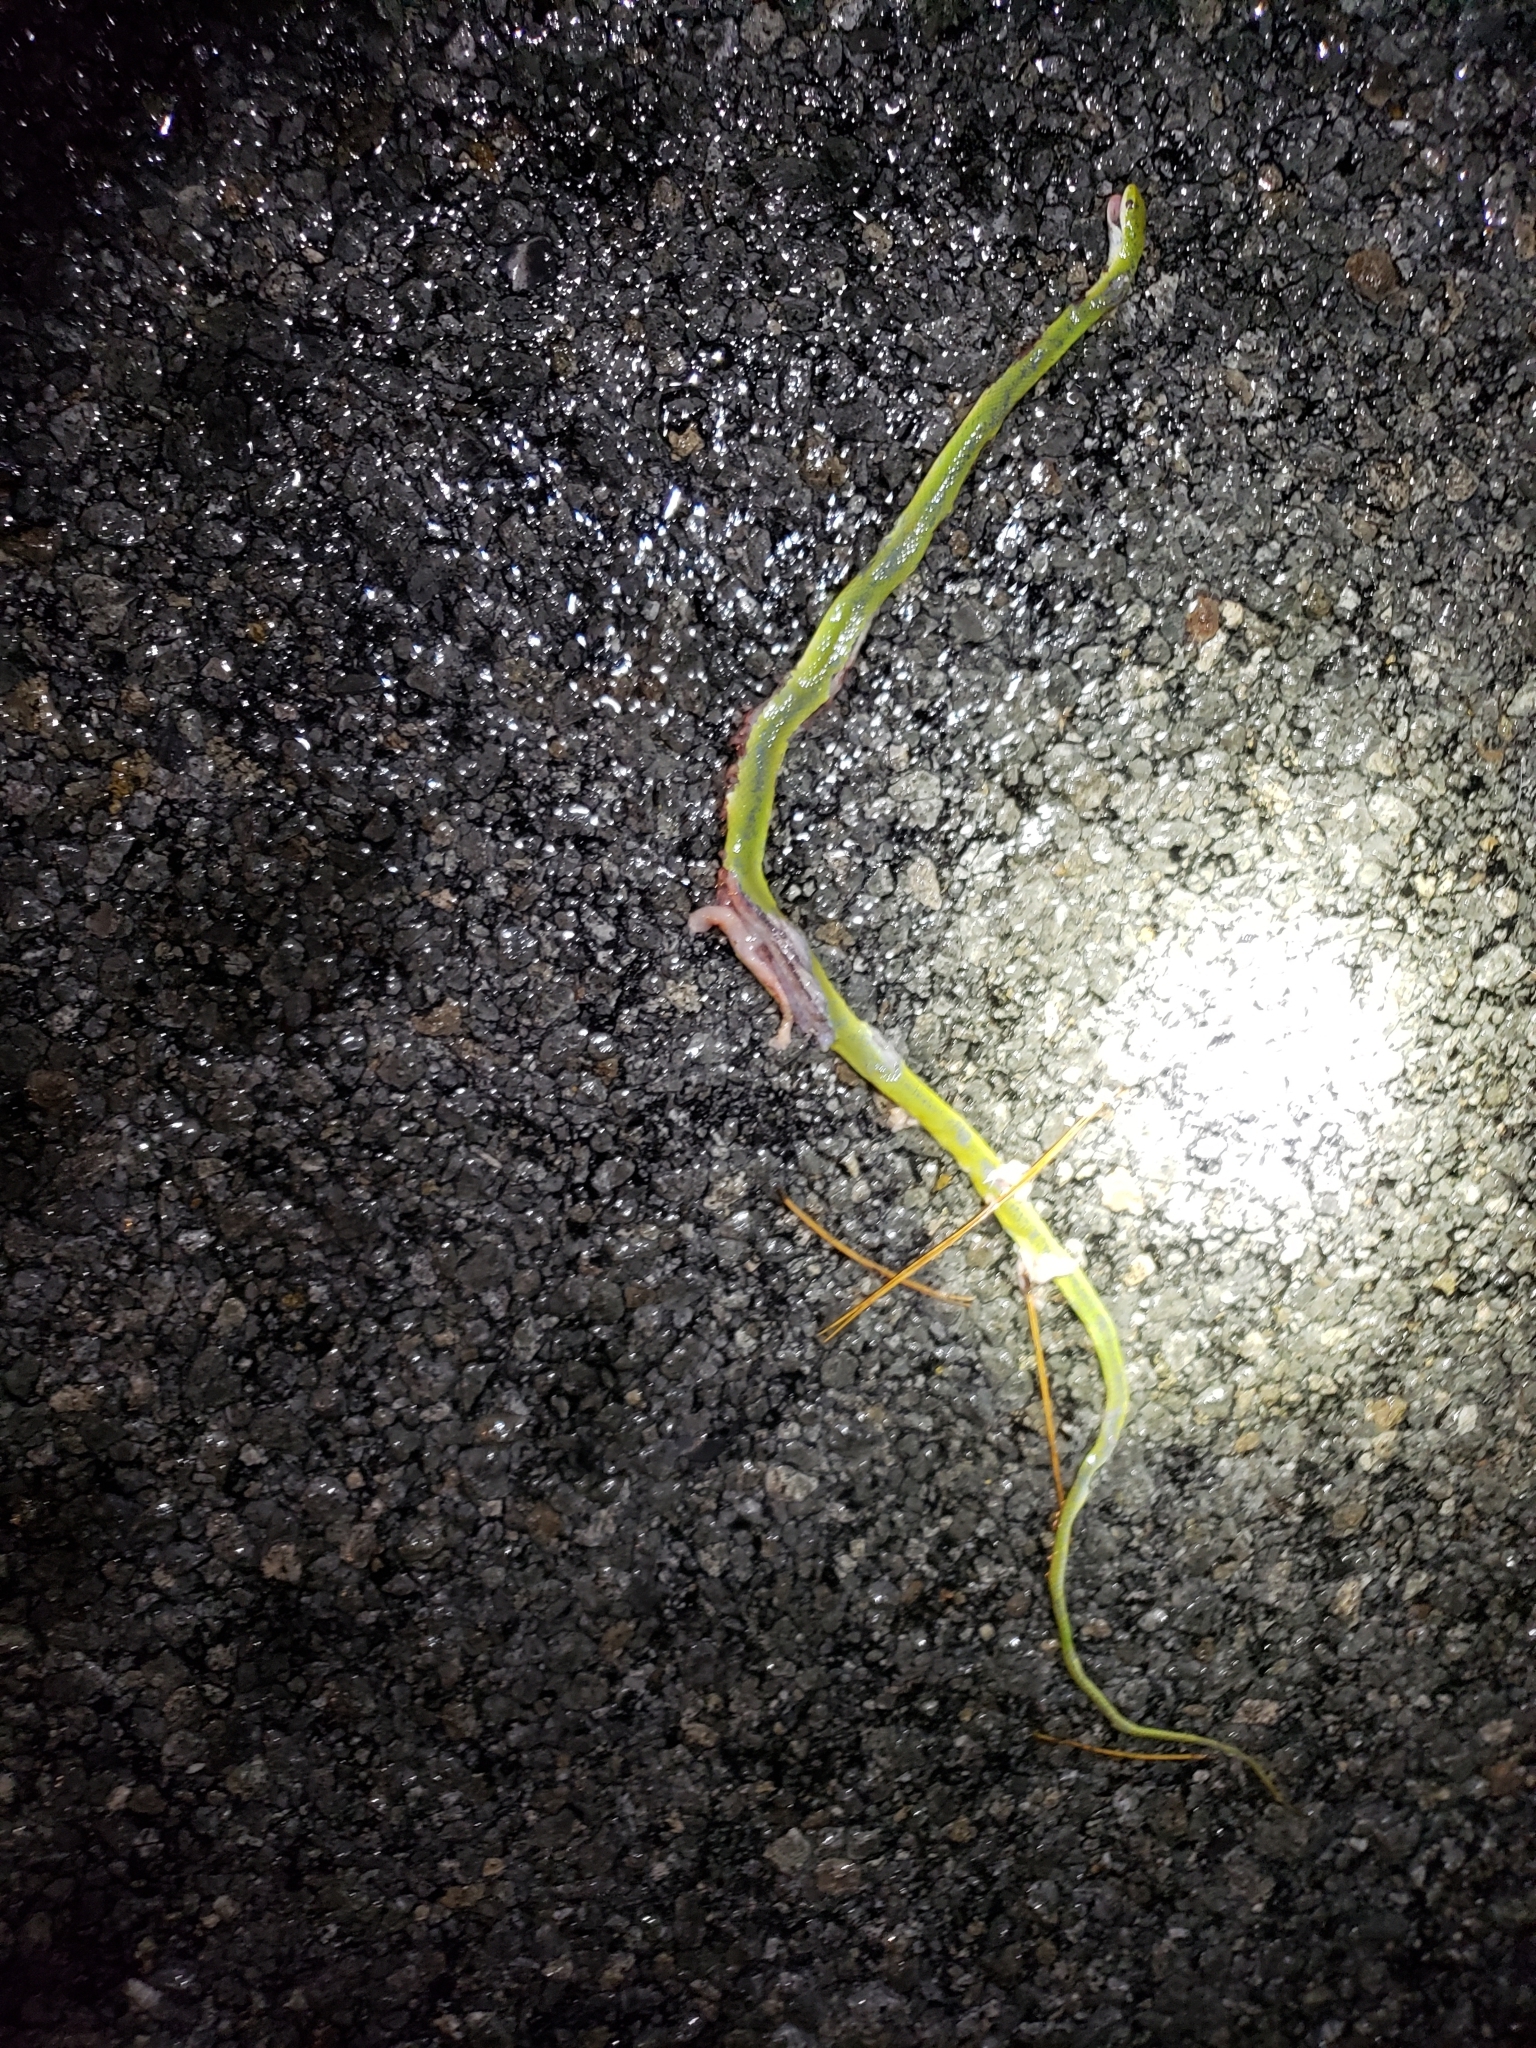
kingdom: Animalia
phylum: Chordata
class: Squamata
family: Colubridae
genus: Opheodrys
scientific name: Opheodrys aestivus
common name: Rough greensnake
